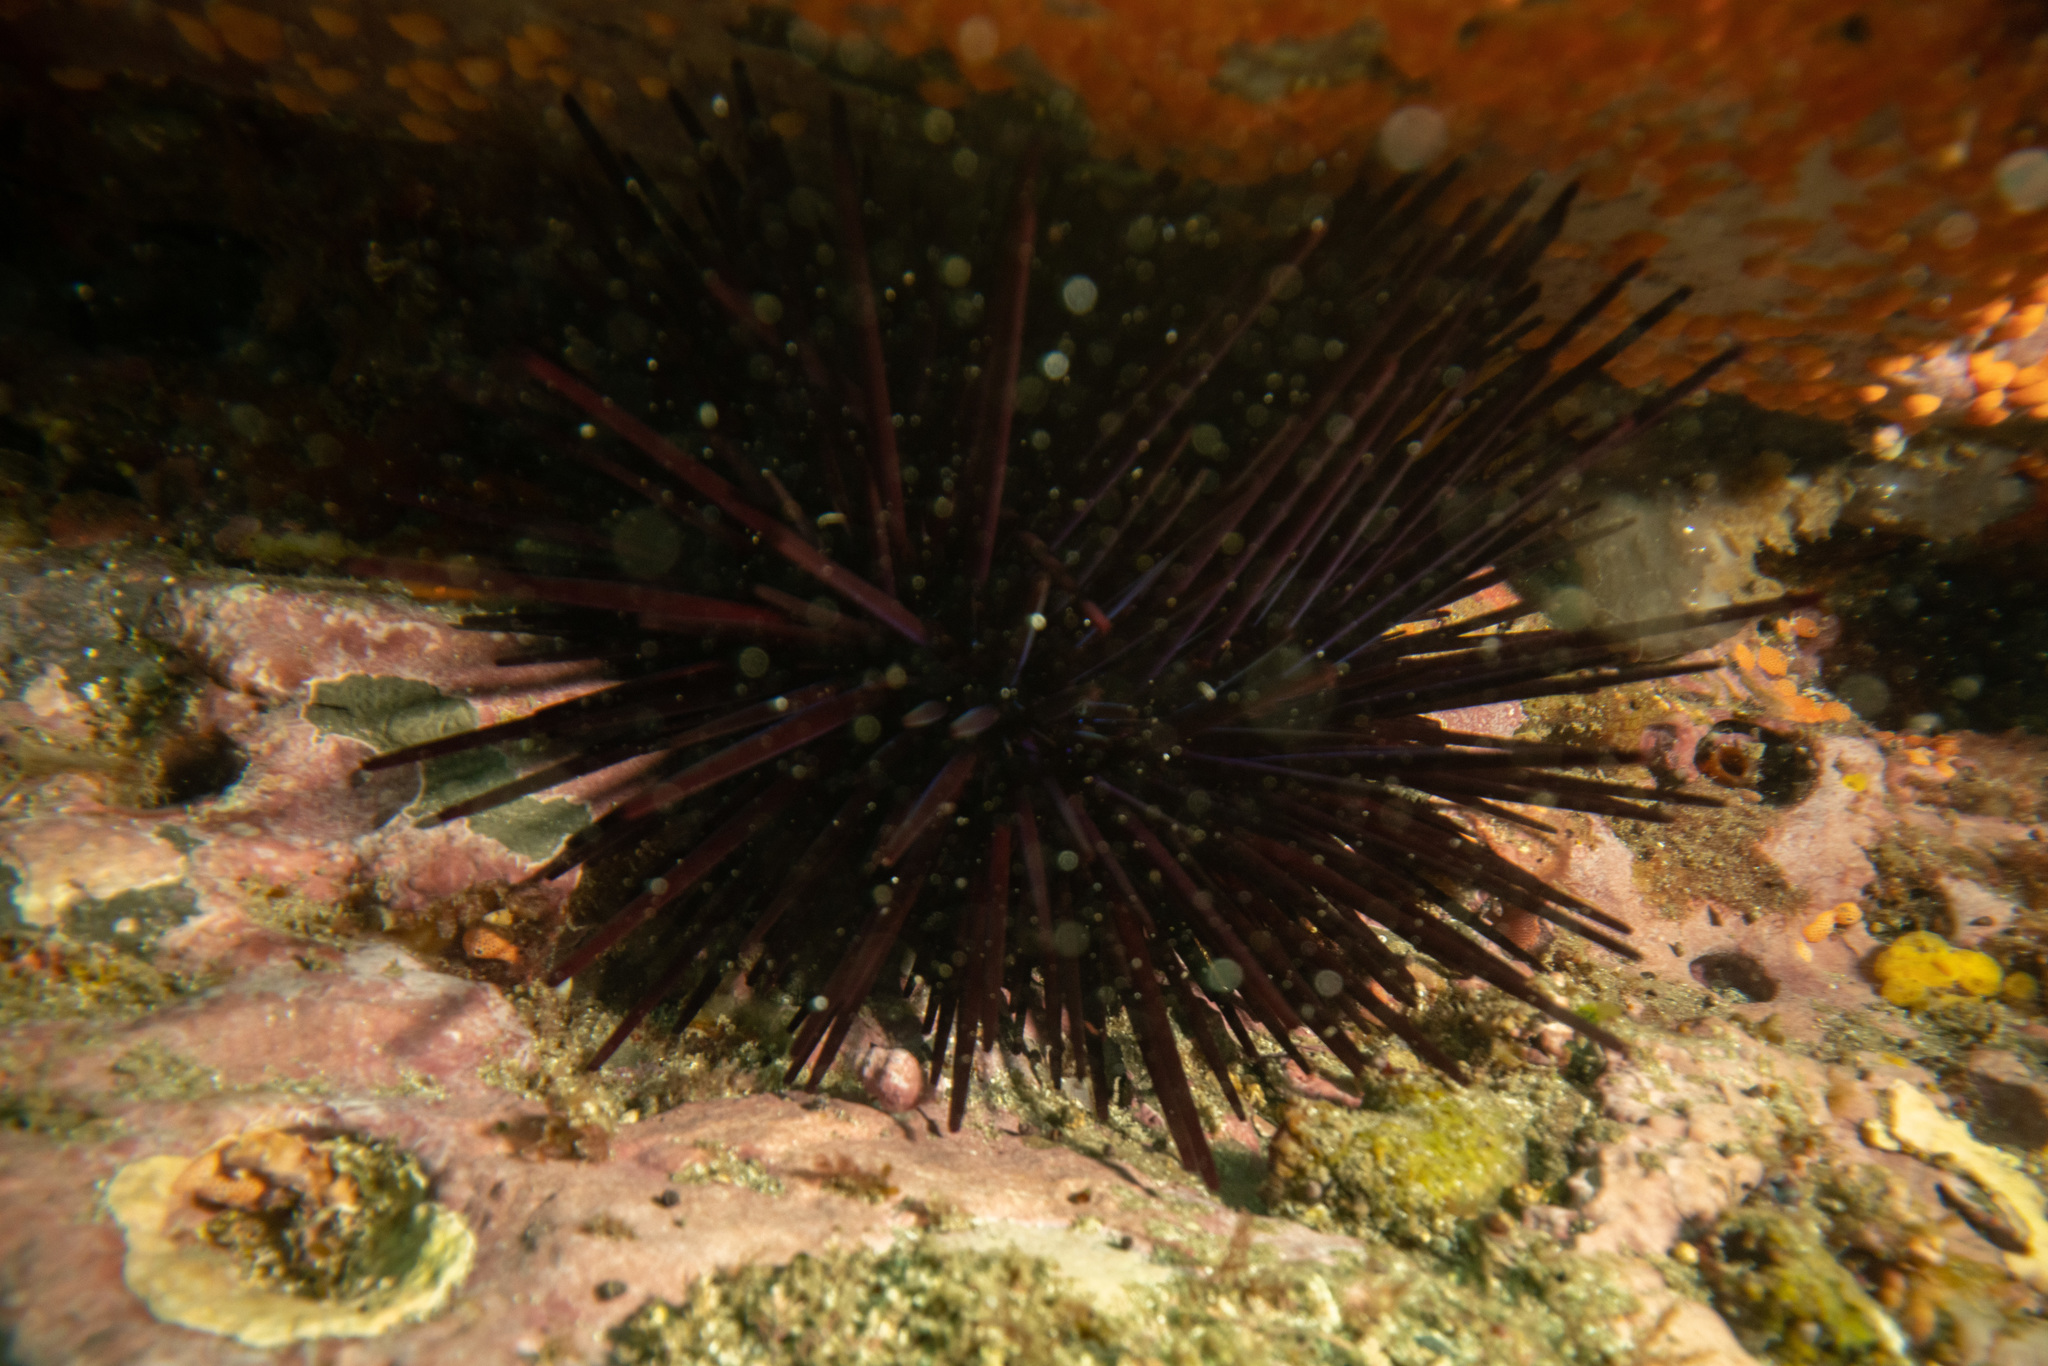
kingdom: Animalia
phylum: Echinodermata
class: Echinoidea
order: Diadematoida
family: Diadematidae
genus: Centrostephanus
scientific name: Centrostephanus rodgersii
